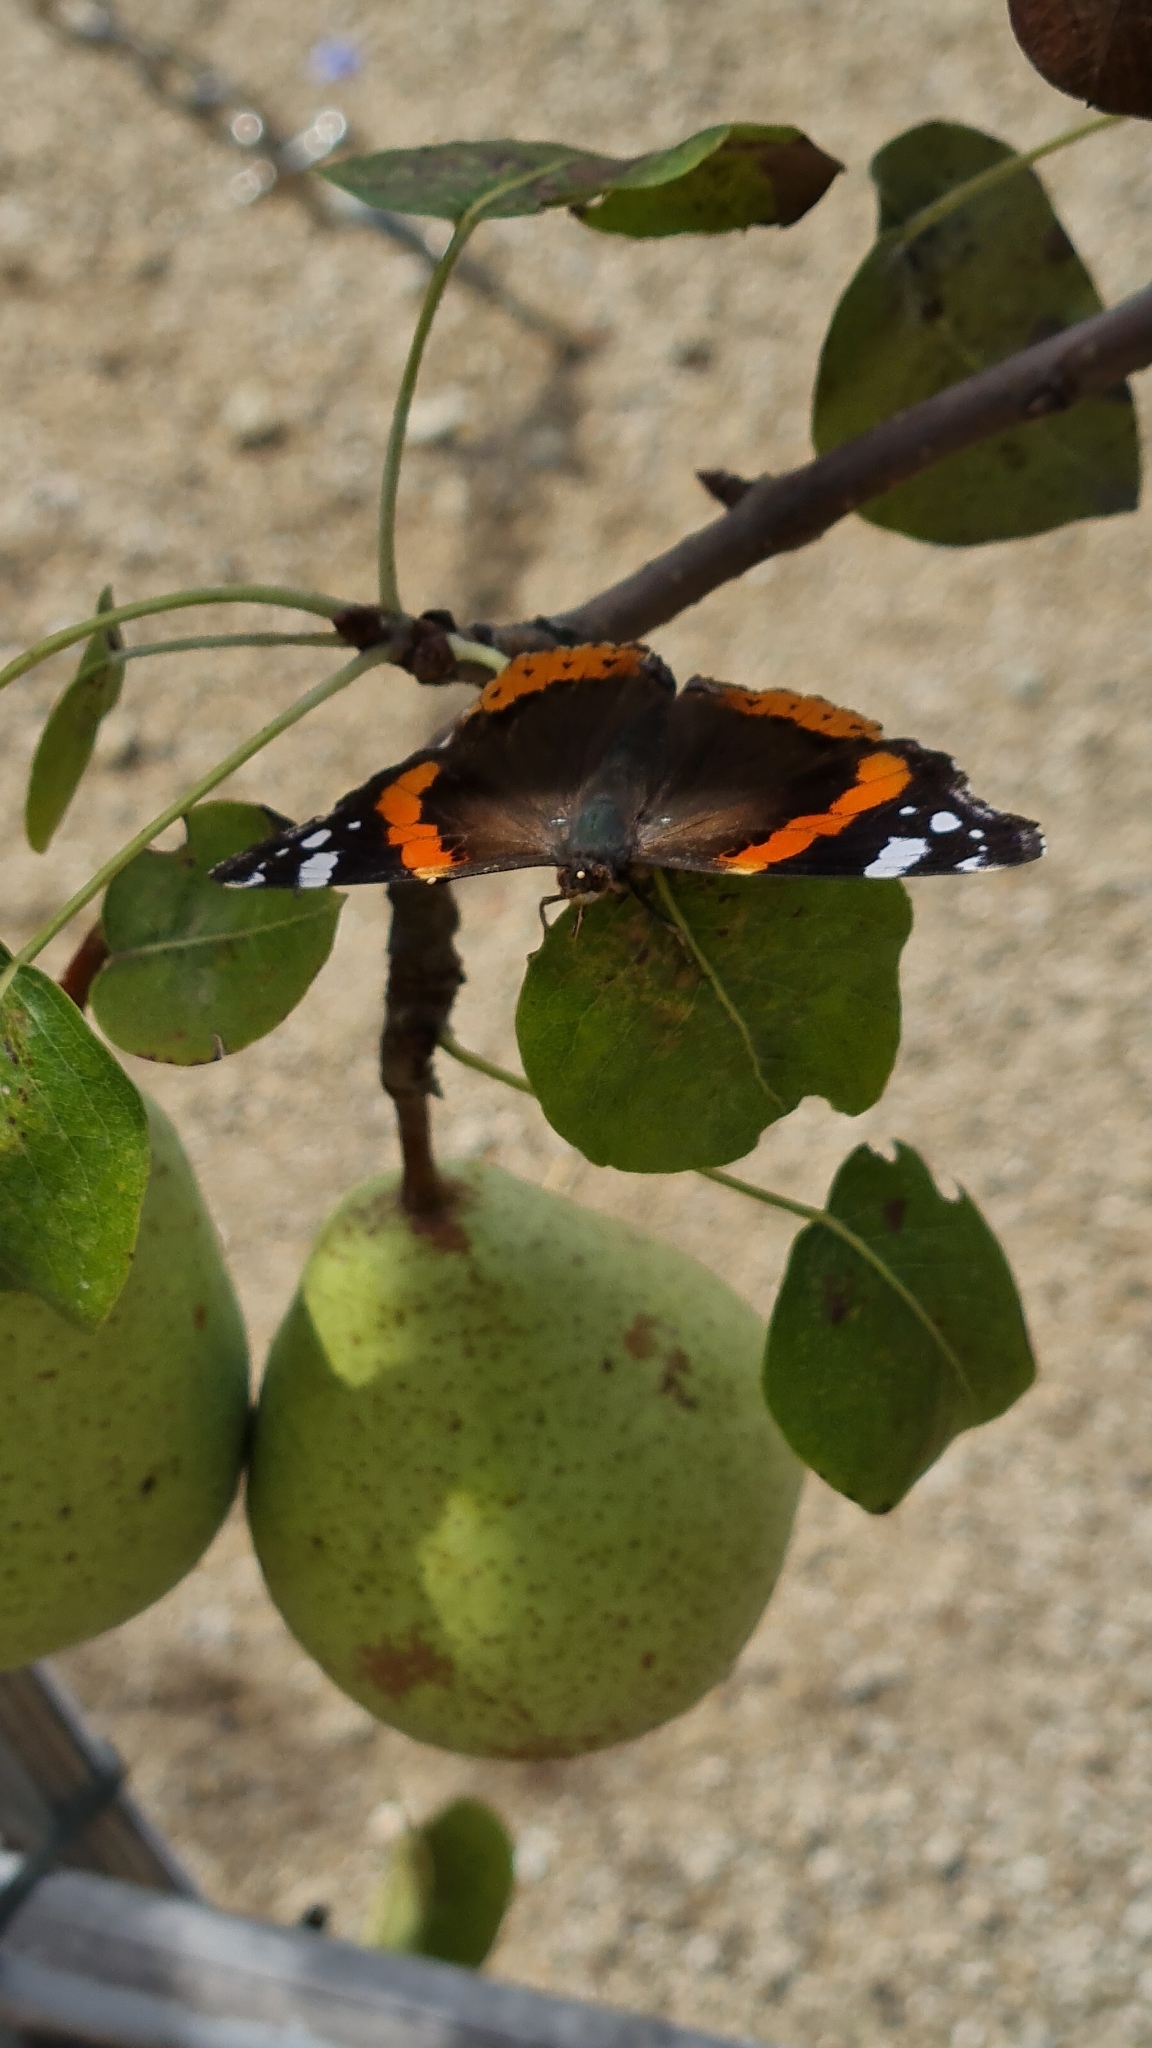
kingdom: Animalia
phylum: Arthropoda
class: Insecta
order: Lepidoptera
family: Nymphalidae
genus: Vanessa
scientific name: Vanessa atalanta
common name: Red admiral
